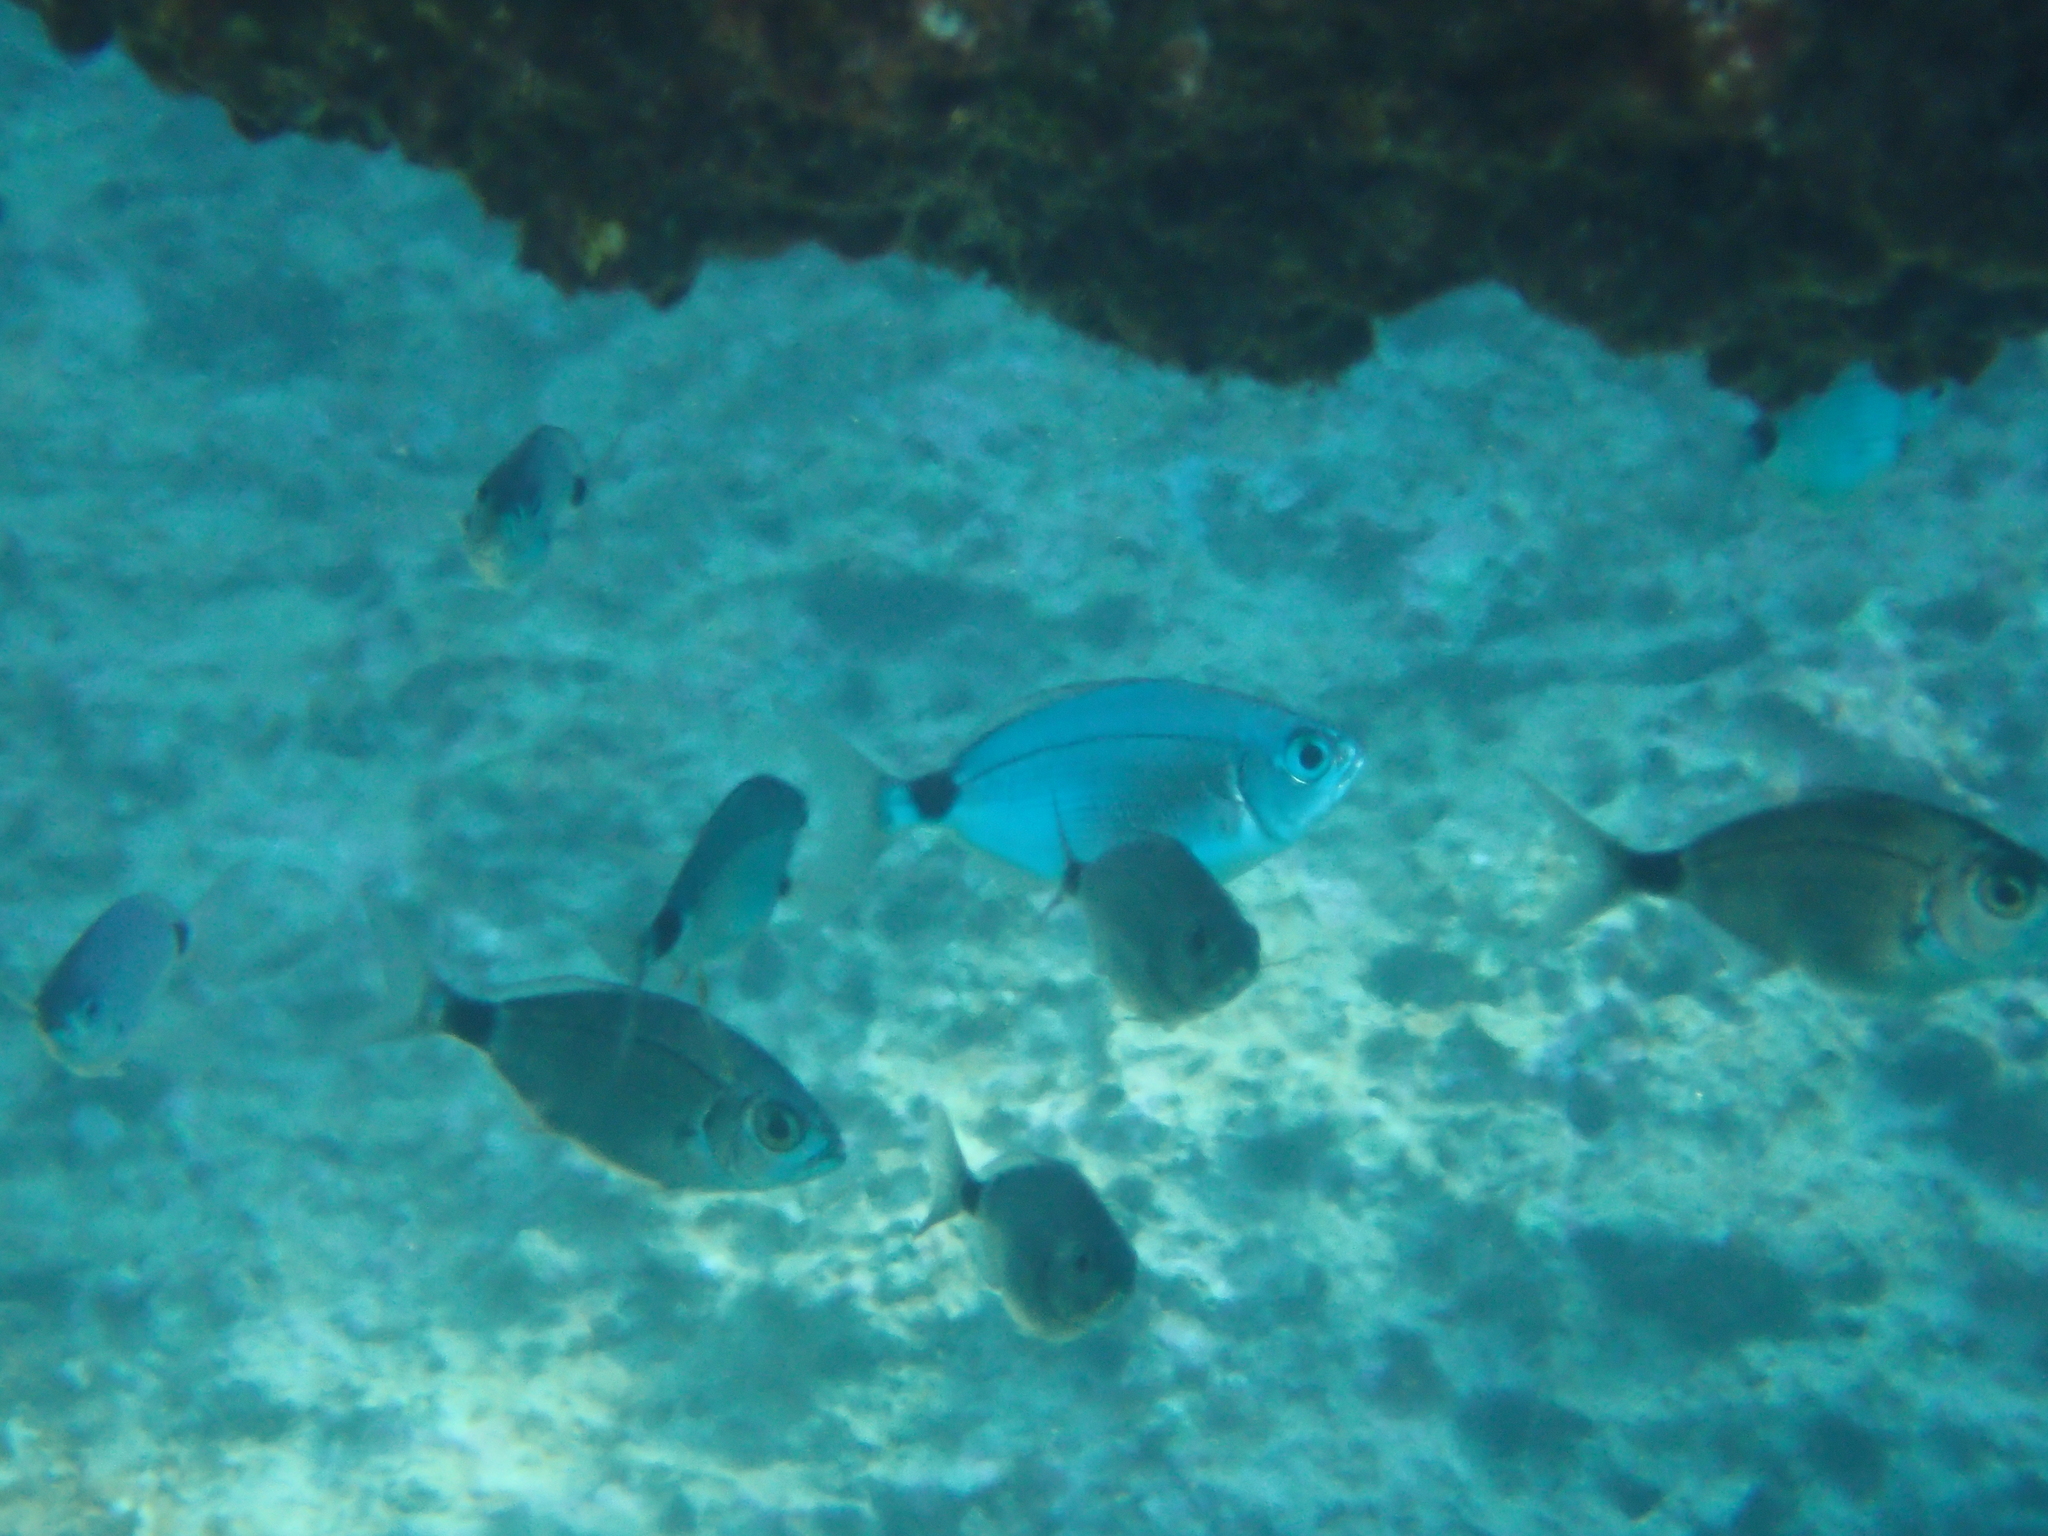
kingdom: Animalia
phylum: Chordata
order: Perciformes
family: Sparidae
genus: Oblada
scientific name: Oblada melanura
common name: Saddled seabream
